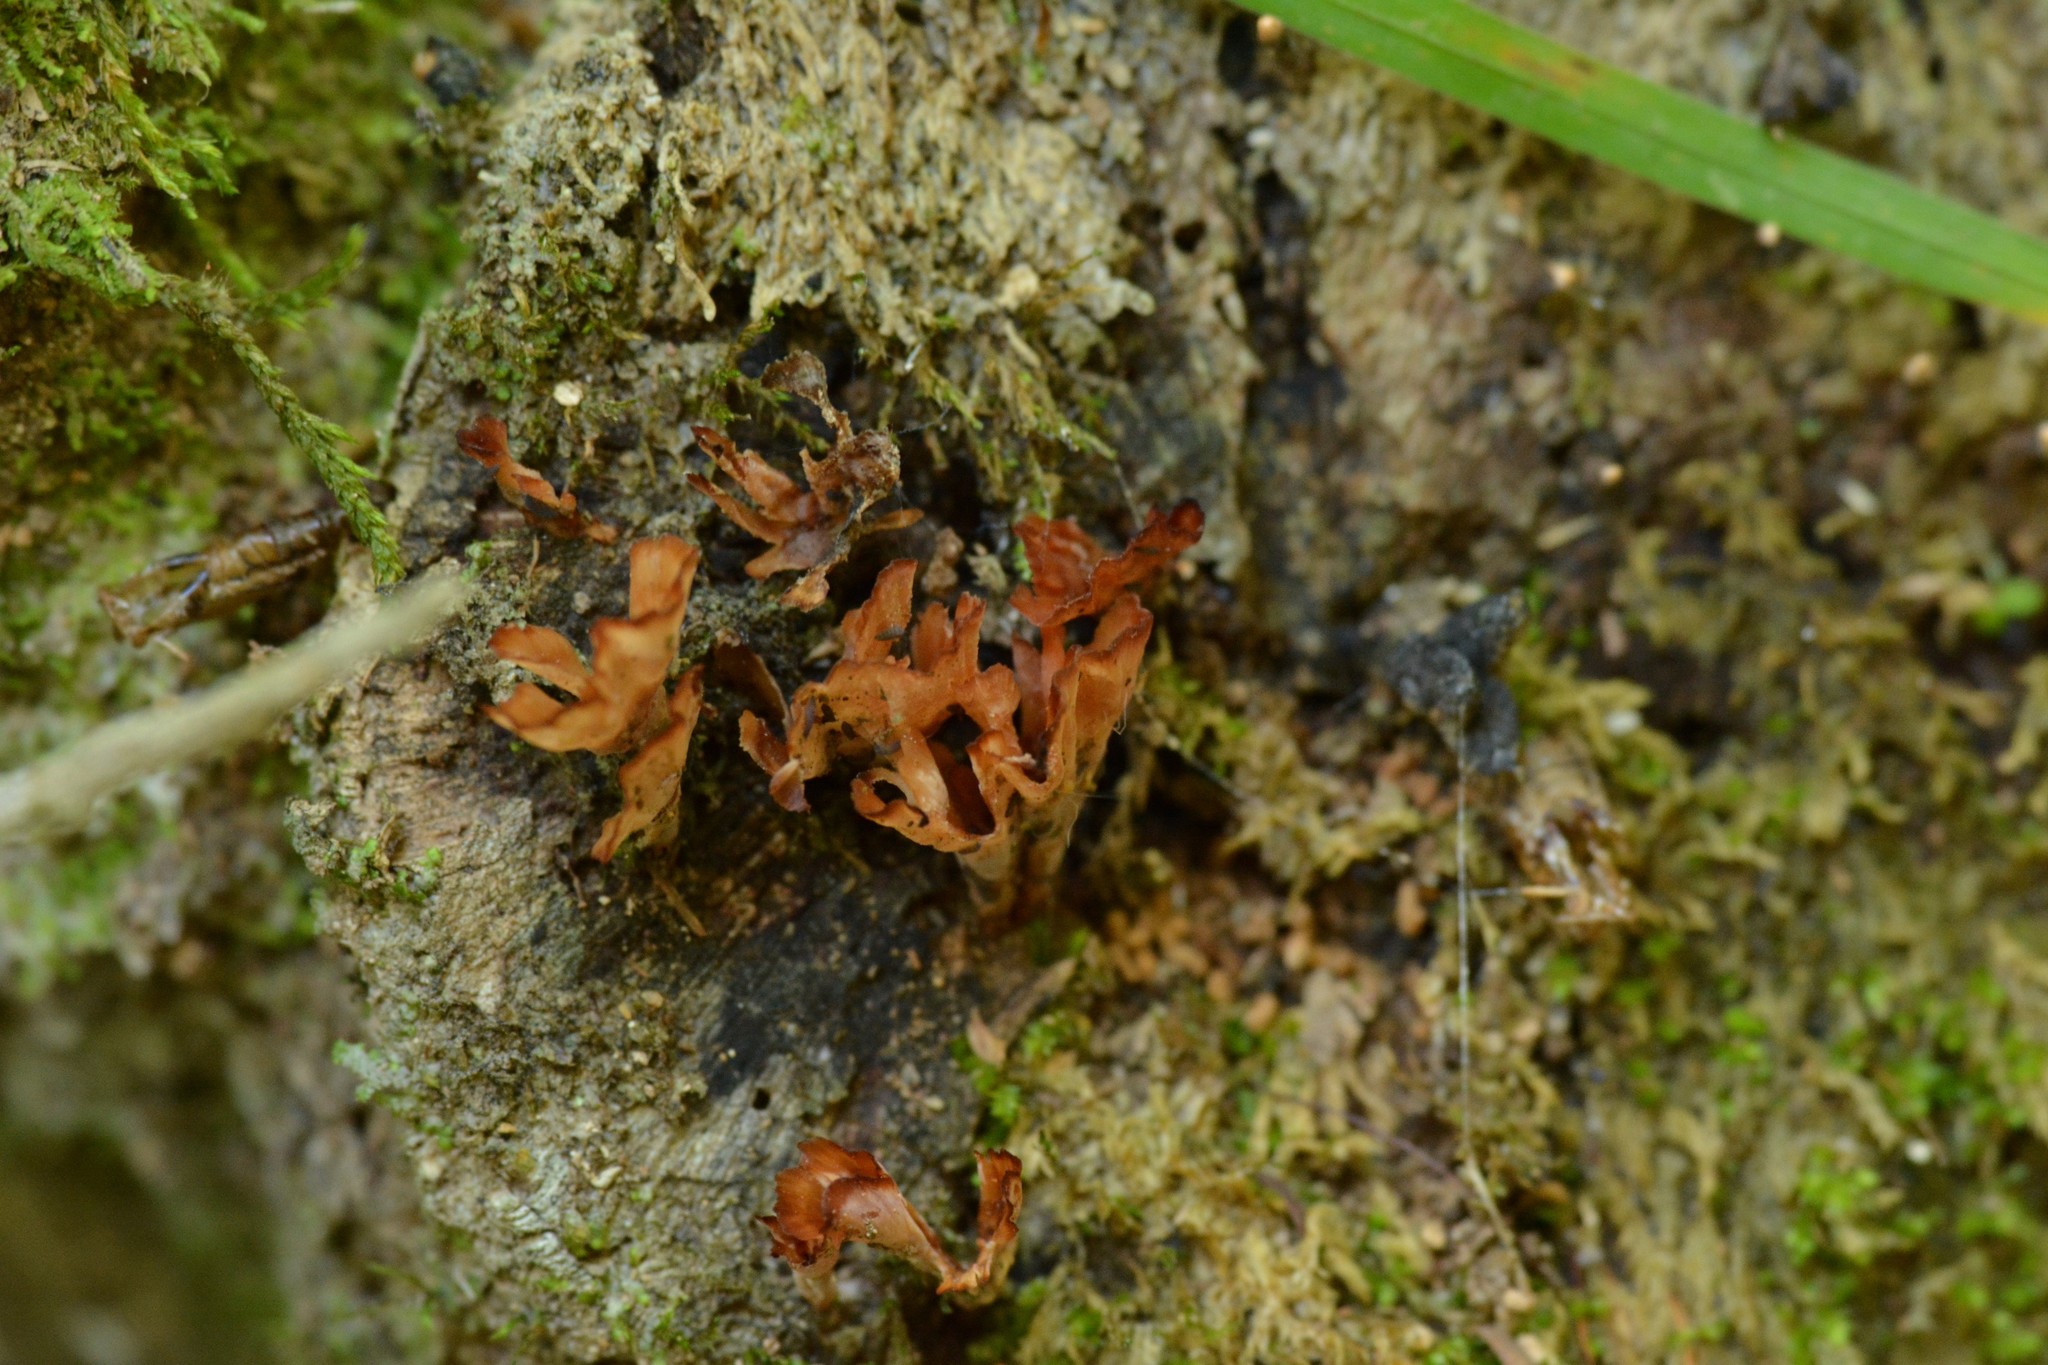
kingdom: Fungi
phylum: Basidiomycota
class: Agaricomycetes
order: Polyporales
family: Podoscyphaceae
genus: Podoscypha
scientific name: Podoscypha petalodes
